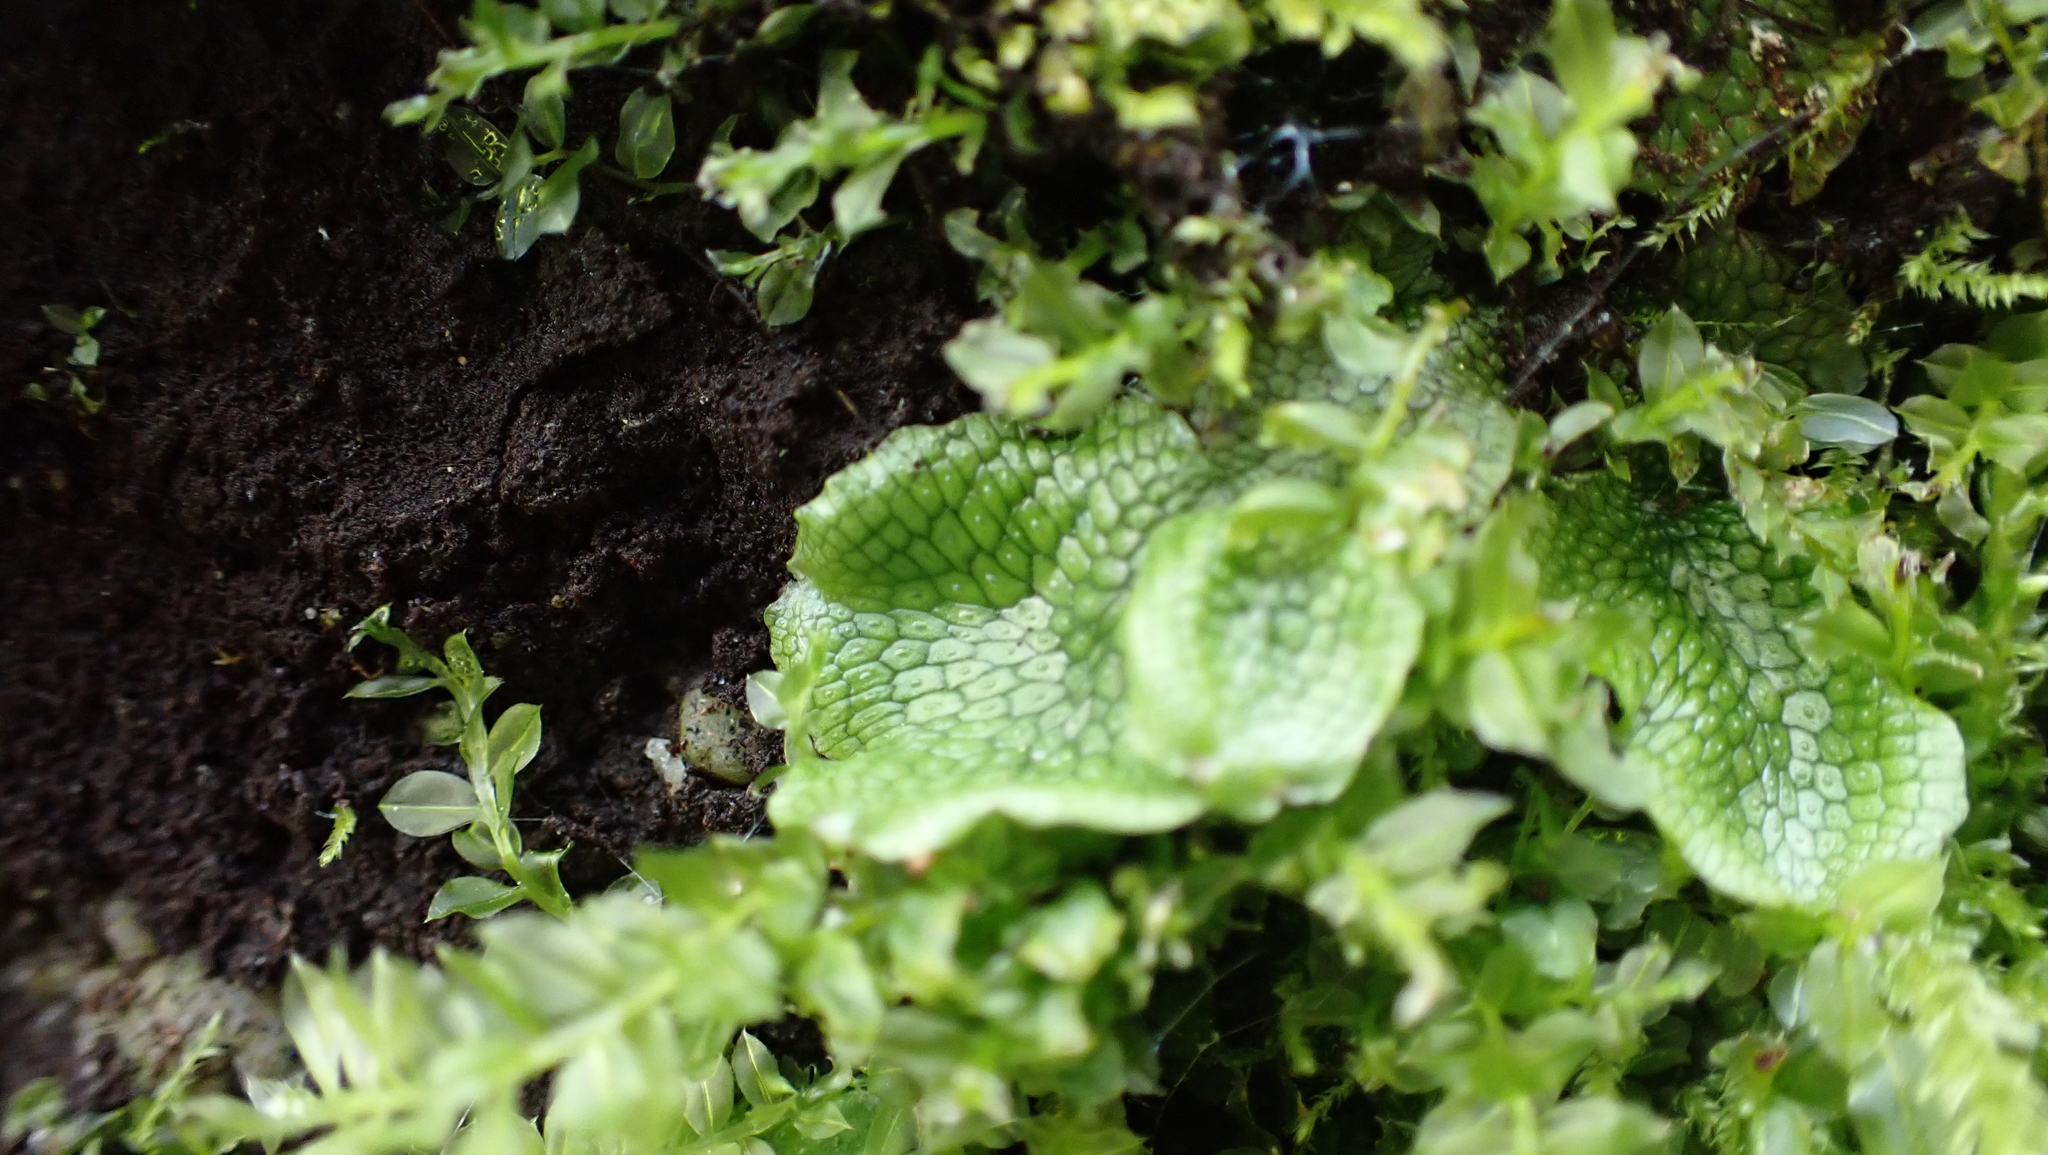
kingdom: Plantae
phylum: Marchantiophyta
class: Marchantiopsida
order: Marchantiales
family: Conocephalaceae
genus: Conocephalum
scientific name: Conocephalum salebrosum
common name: Cat-tongue liverwort
